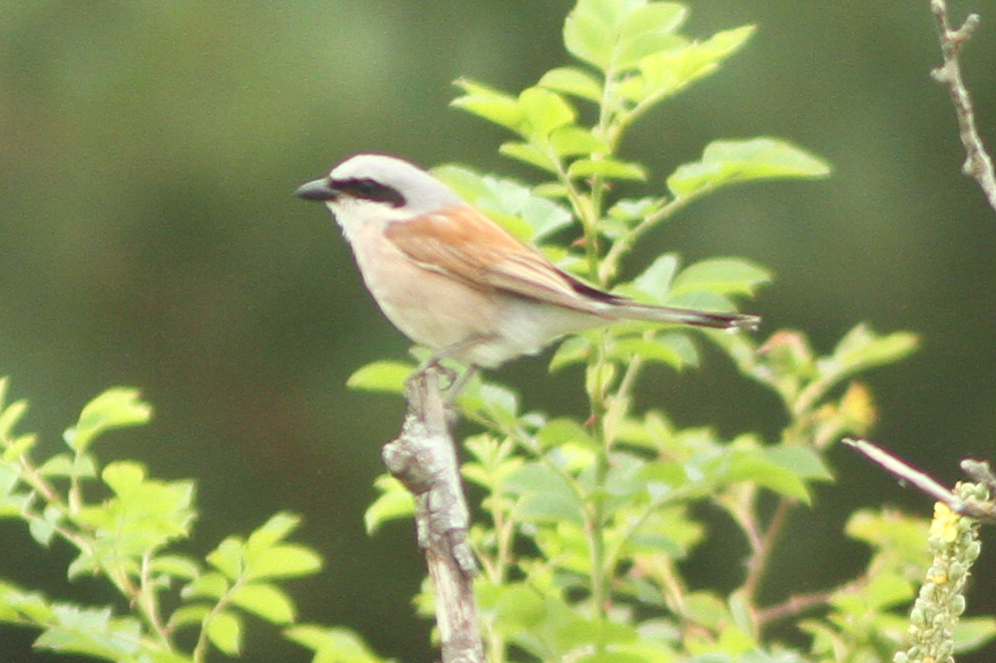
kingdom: Animalia
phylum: Chordata
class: Aves
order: Passeriformes
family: Laniidae
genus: Lanius
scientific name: Lanius collurio
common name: Red-backed shrike
